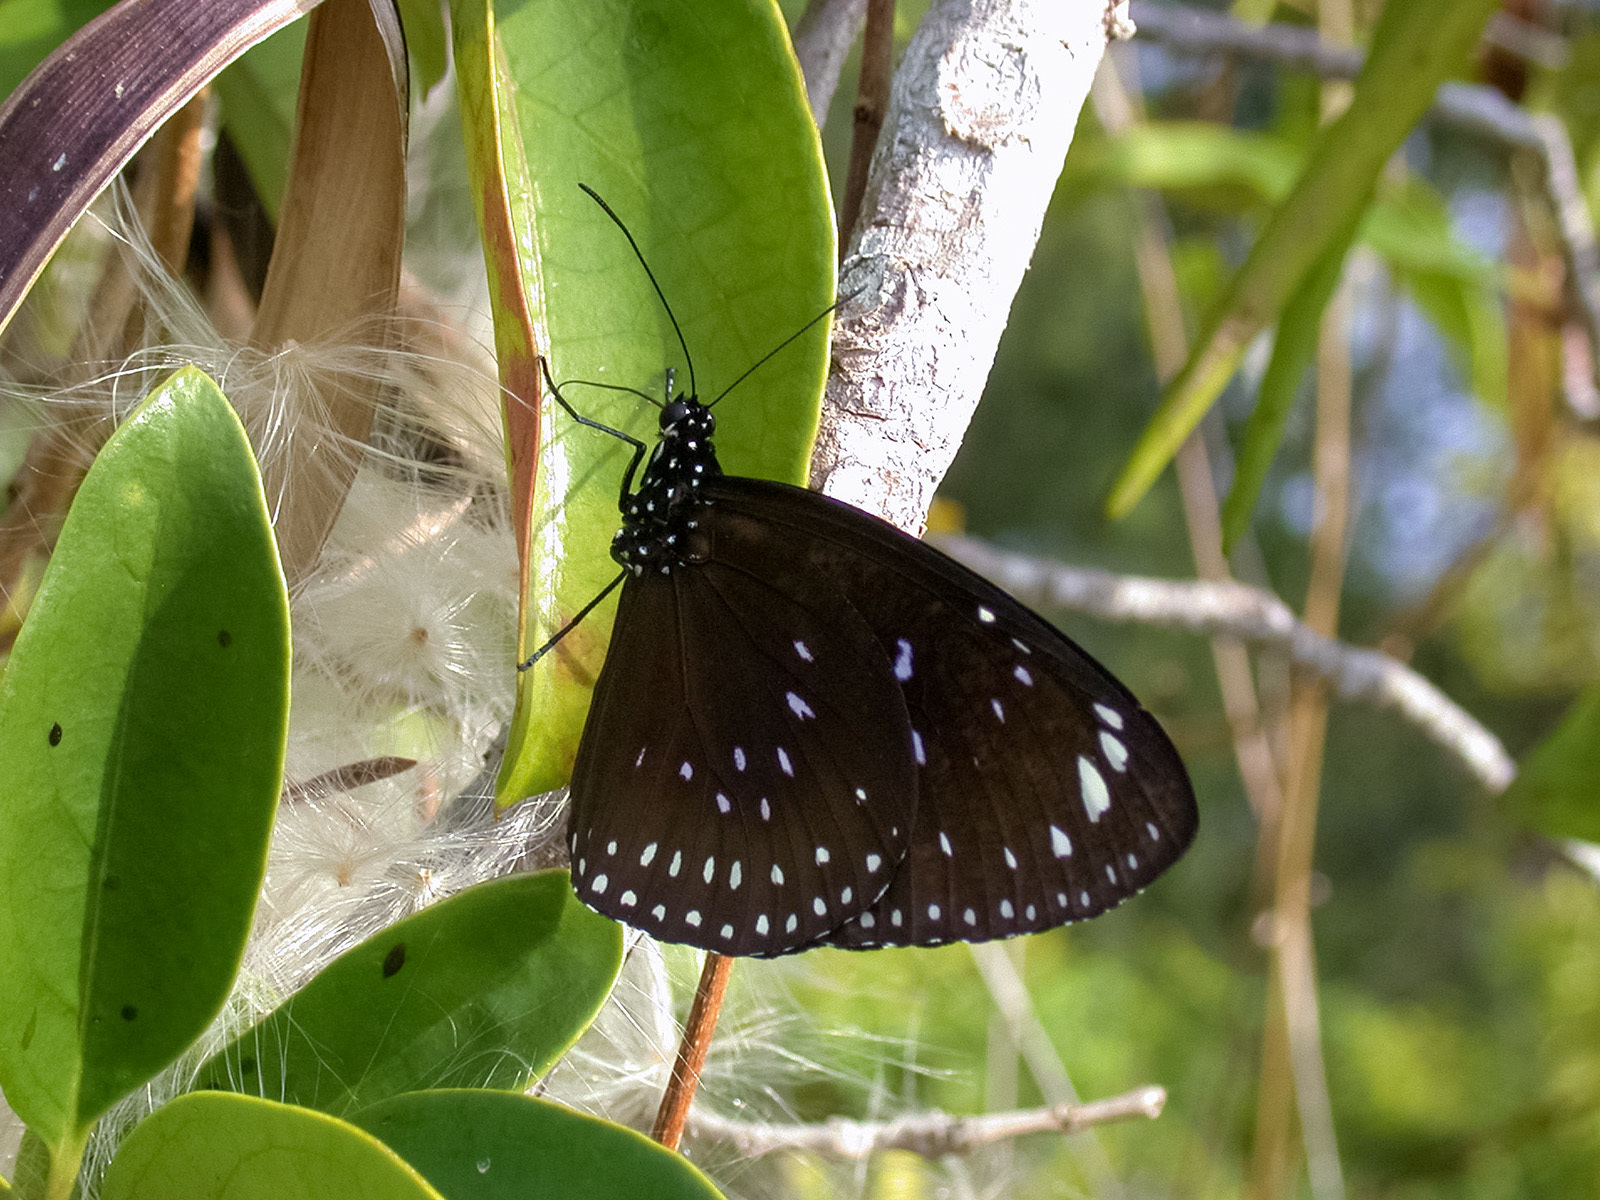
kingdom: Animalia
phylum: Arthropoda
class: Insecta
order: Lepidoptera
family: Nymphalidae
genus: Euploea
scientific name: Euploea midamus
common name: Blue-spotted crow butterfly
